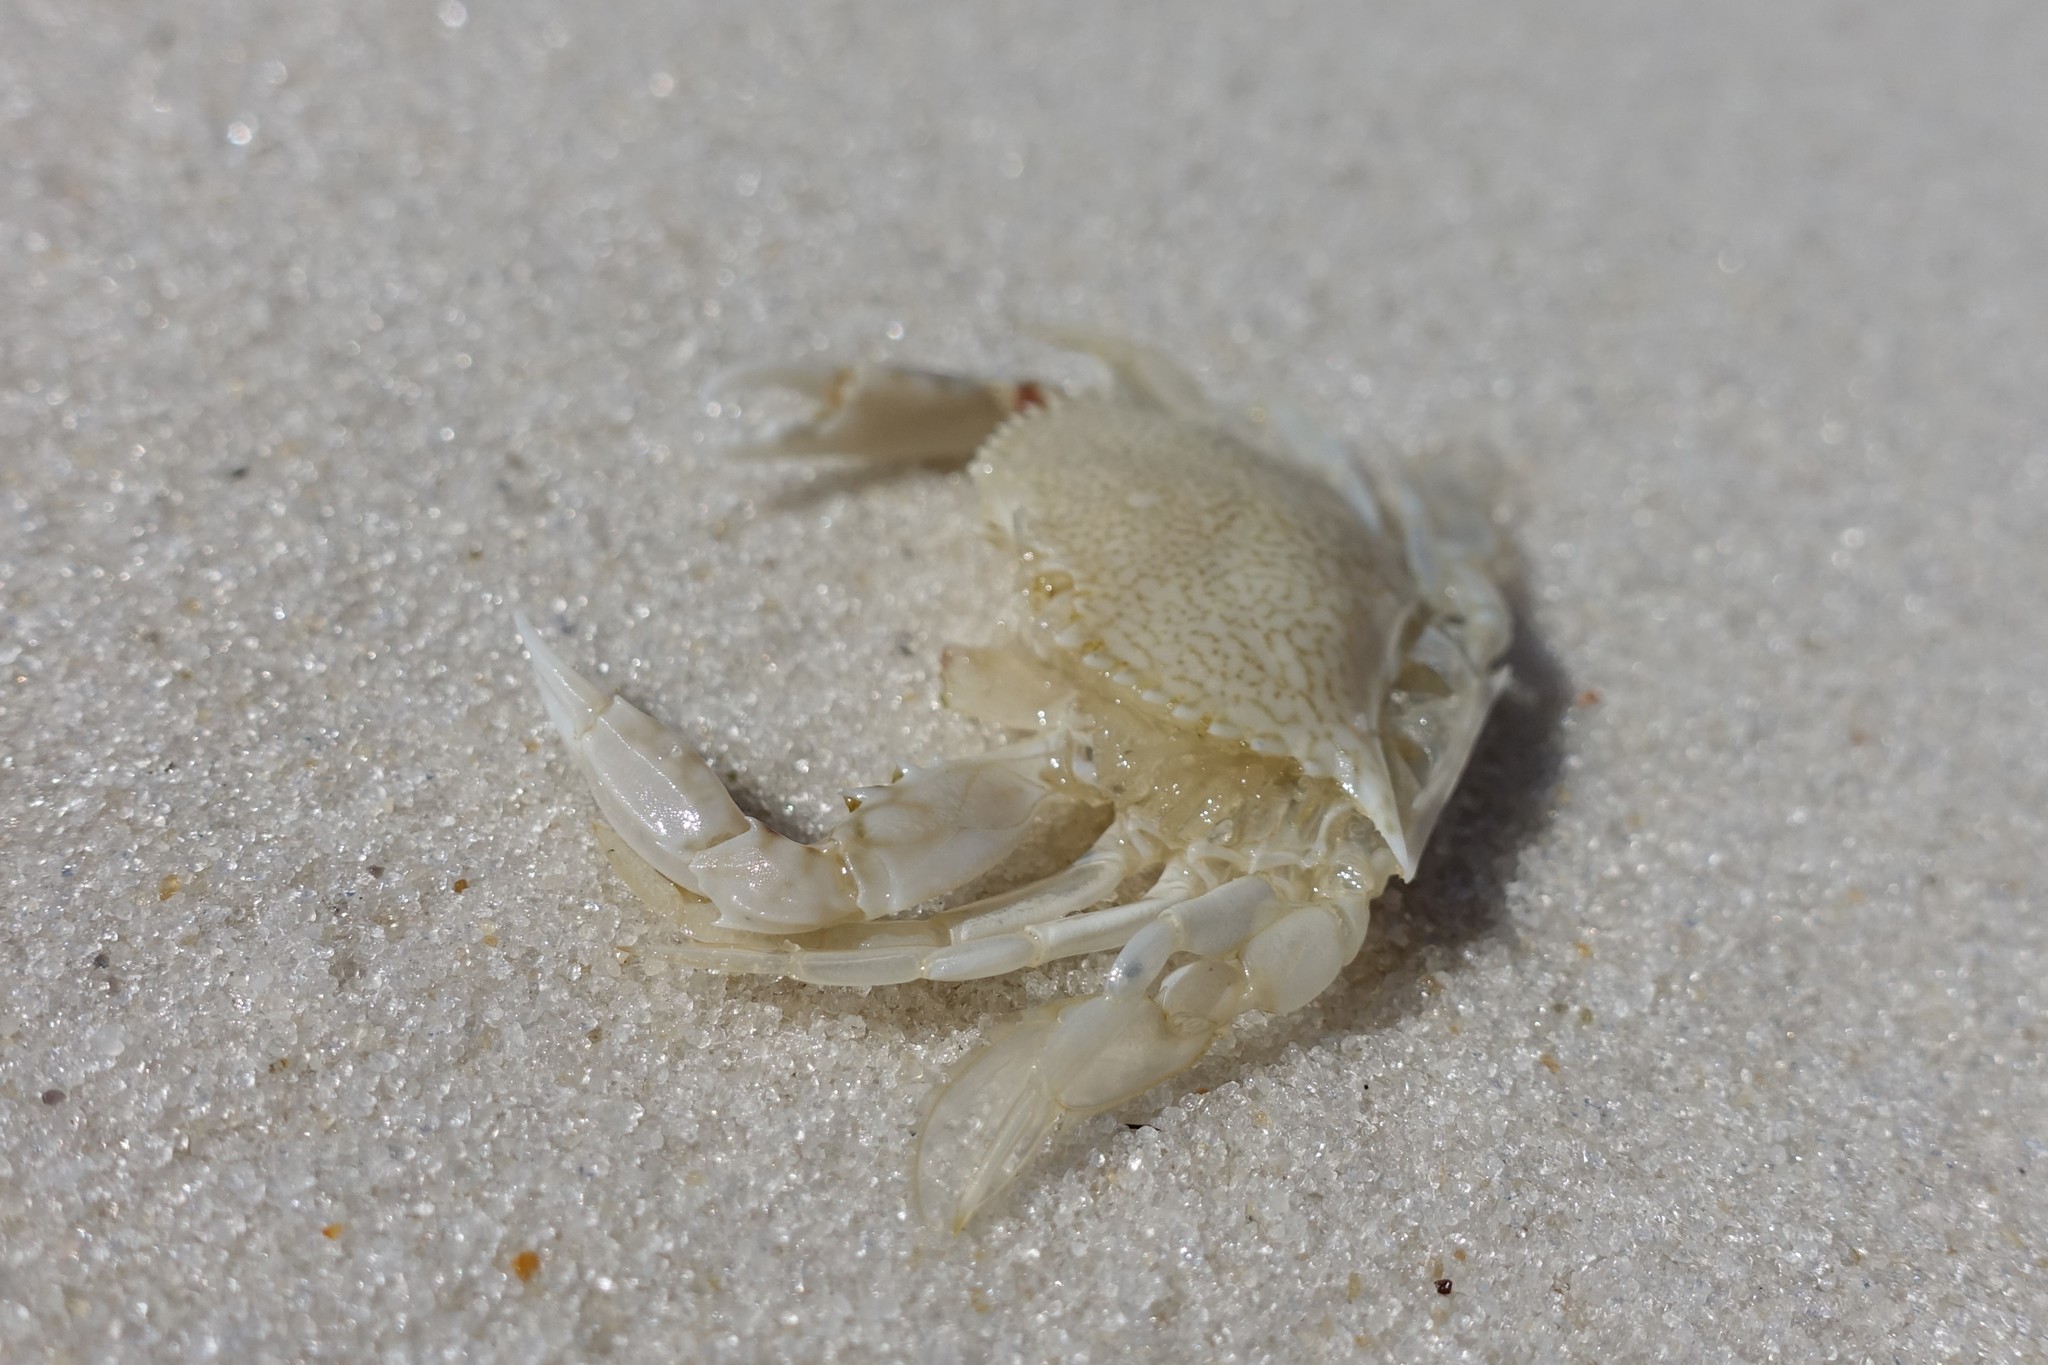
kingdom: Animalia
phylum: Arthropoda
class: Malacostraca
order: Decapoda
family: Portunidae
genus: Arenaeus
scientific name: Arenaeus cribrarius
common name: Speckled crab
